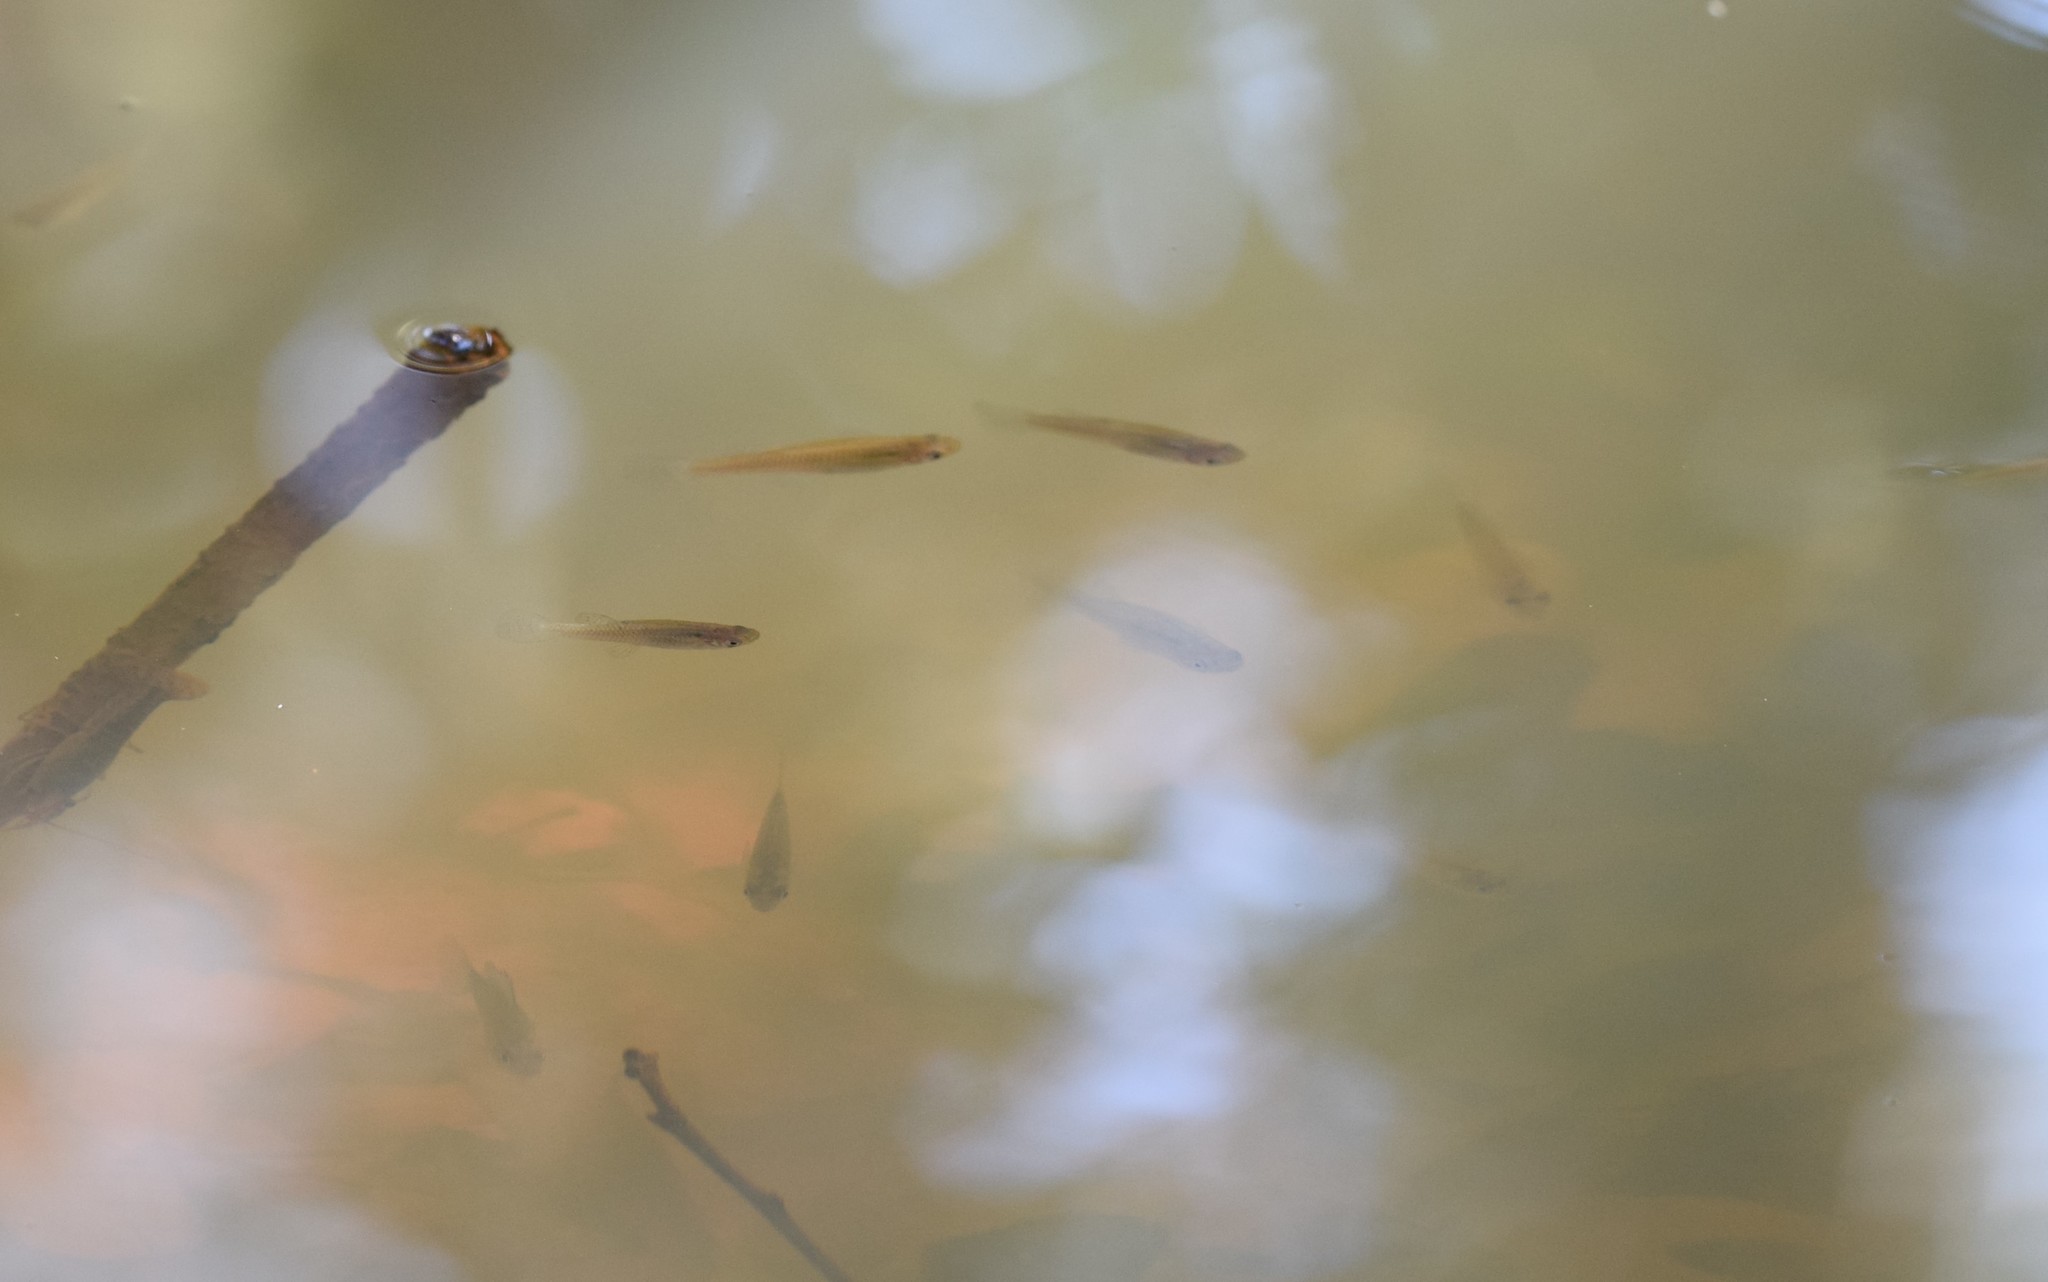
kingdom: Animalia
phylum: Chordata
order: Cyprinodontiformes
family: Poeciliidae
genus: Gambusia
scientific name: Gambusia affinis
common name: Mosquitofish
